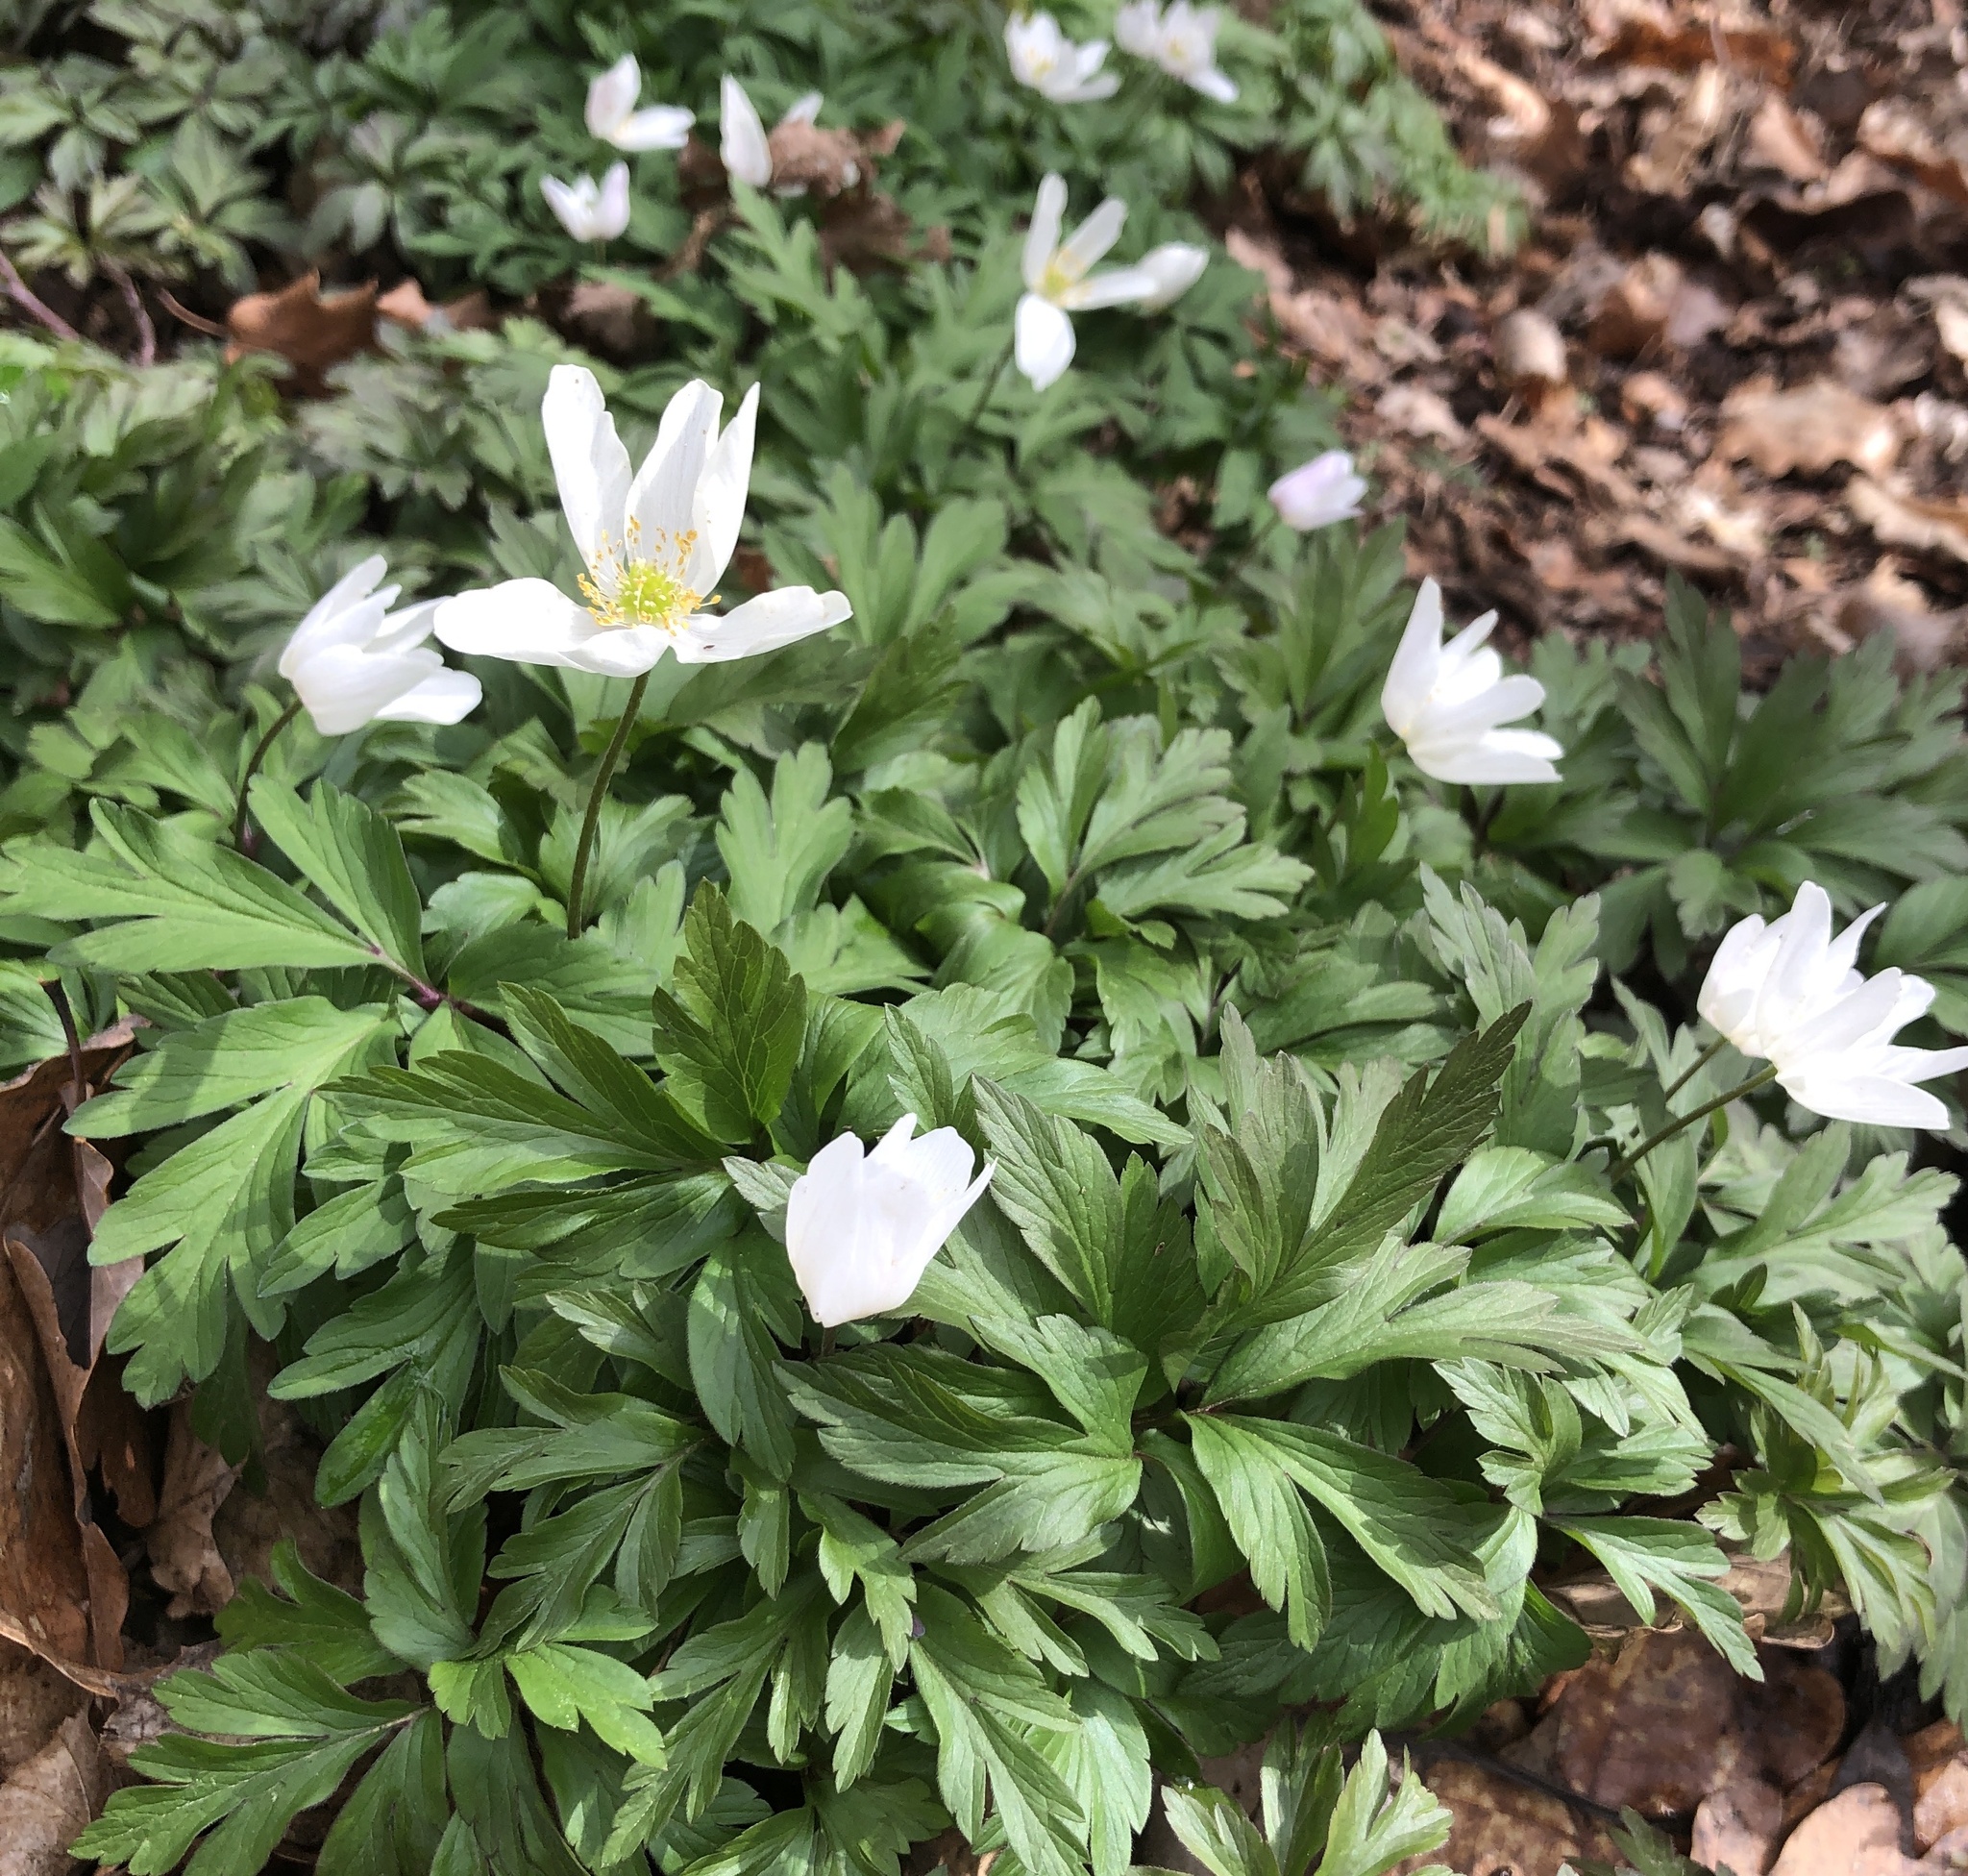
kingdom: Plantae
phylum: Tracheophyta
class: Magnoliopsida
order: Ranunculales
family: Ranunculaceae
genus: Anemone
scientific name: Anemone nemorosa
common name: Wood anemone
